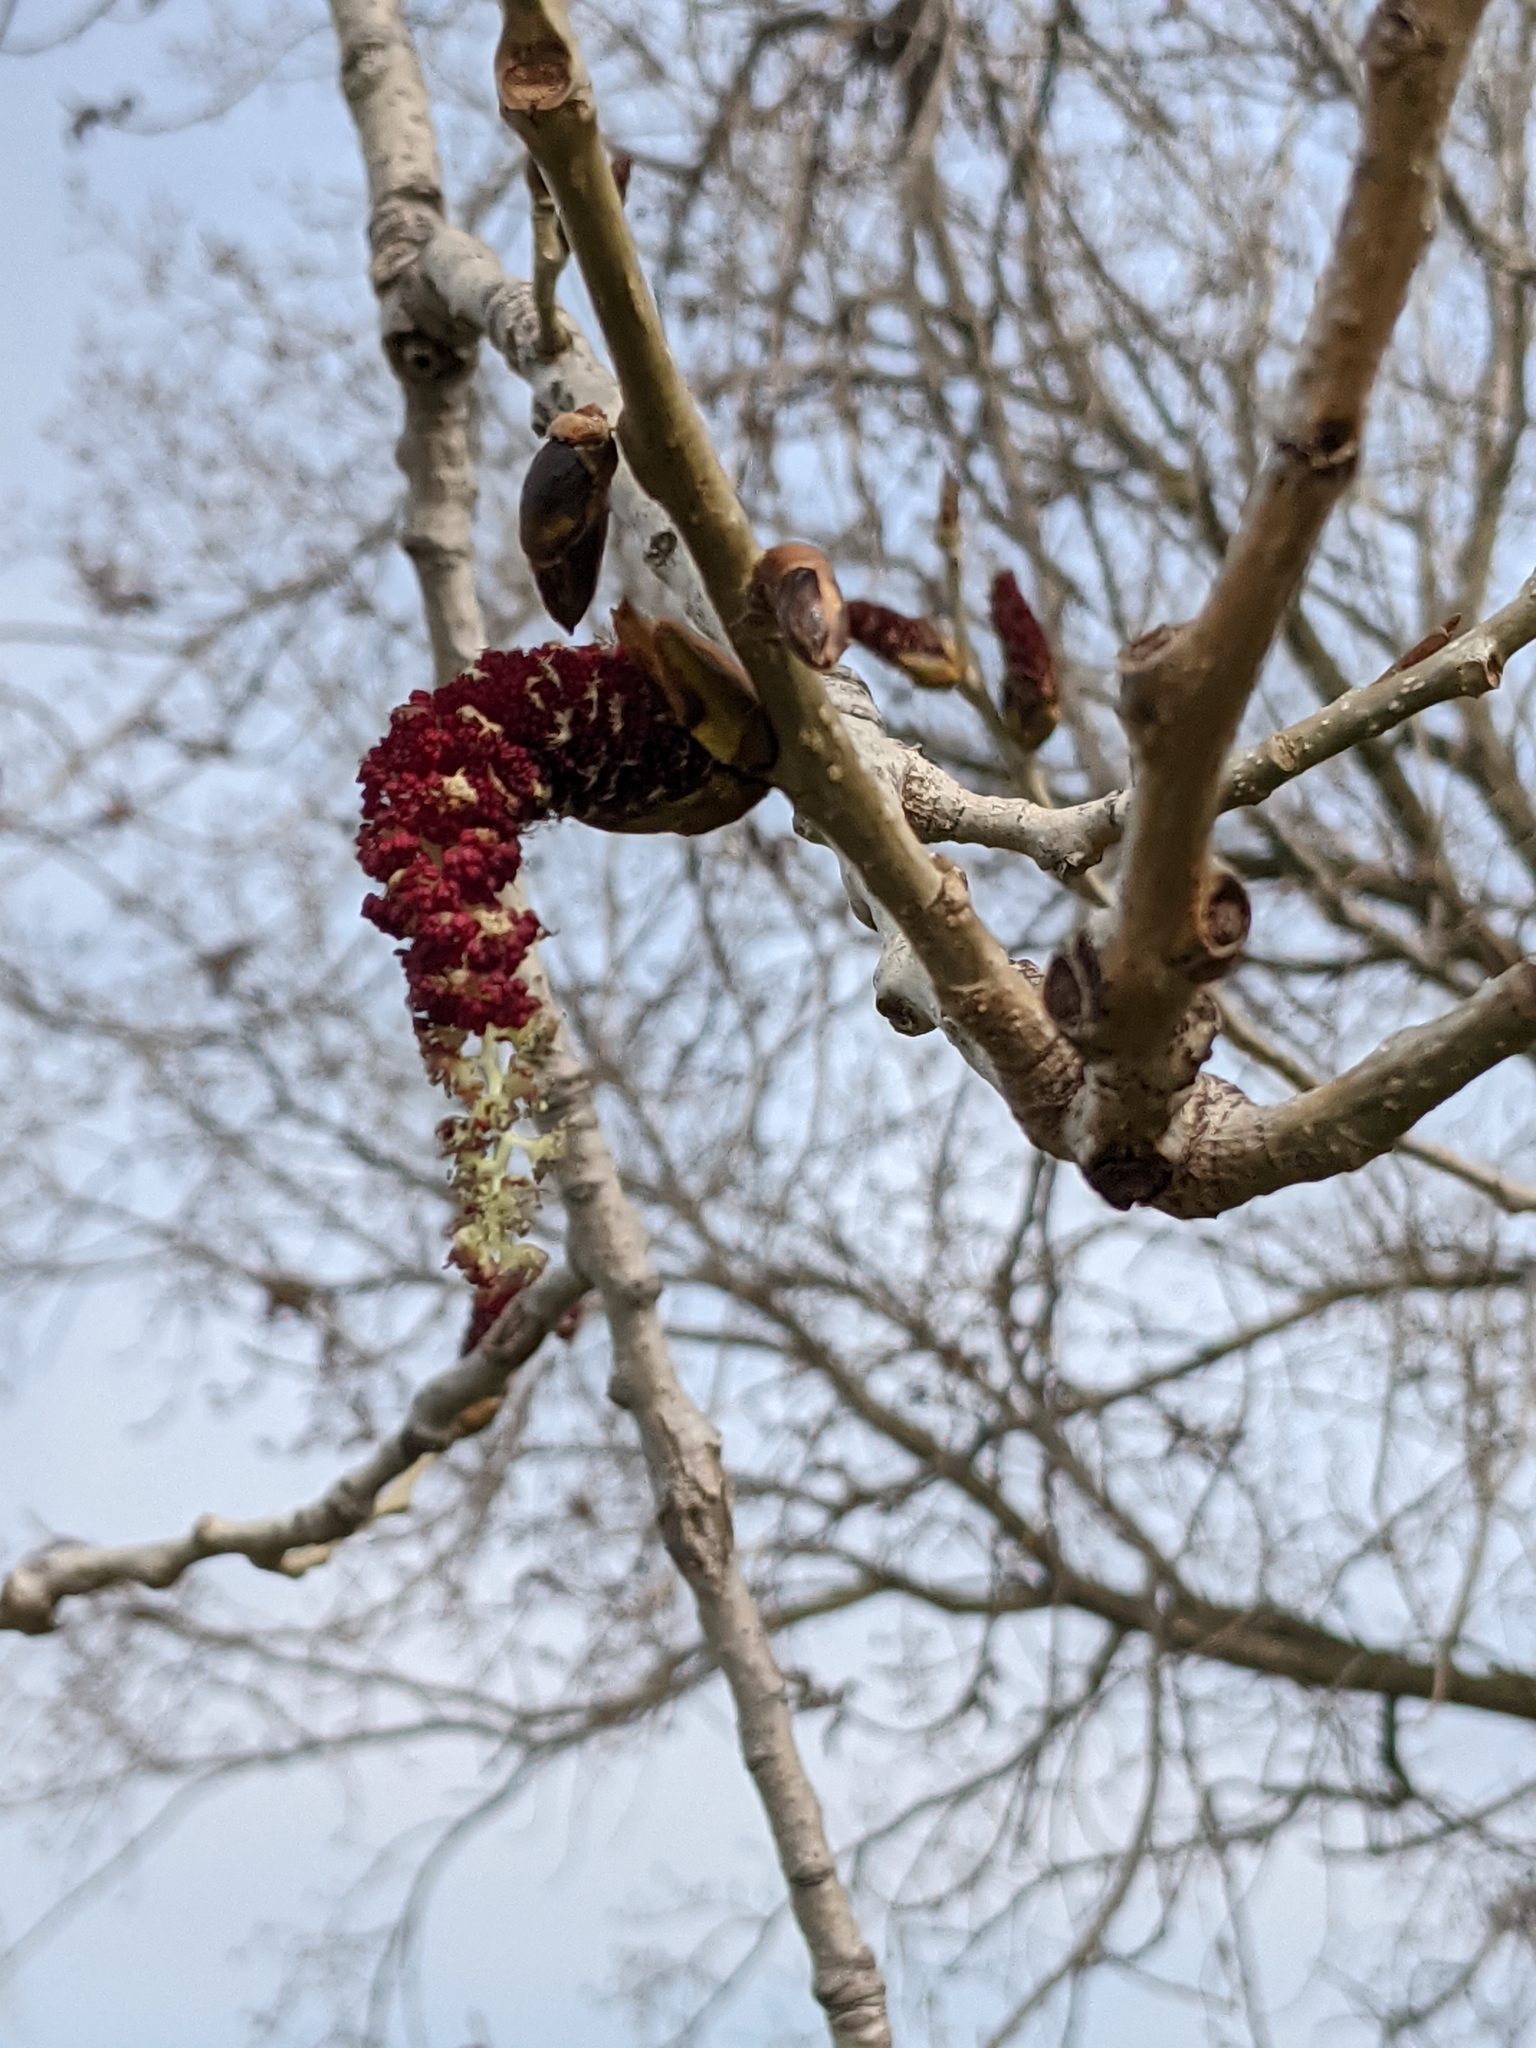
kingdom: Plantae
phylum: Tracheophyta
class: Magnoliopsida
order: Malpighiales
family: Salicaceae
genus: Populus
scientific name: Populus deltoides
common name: Eastern cottonwood
